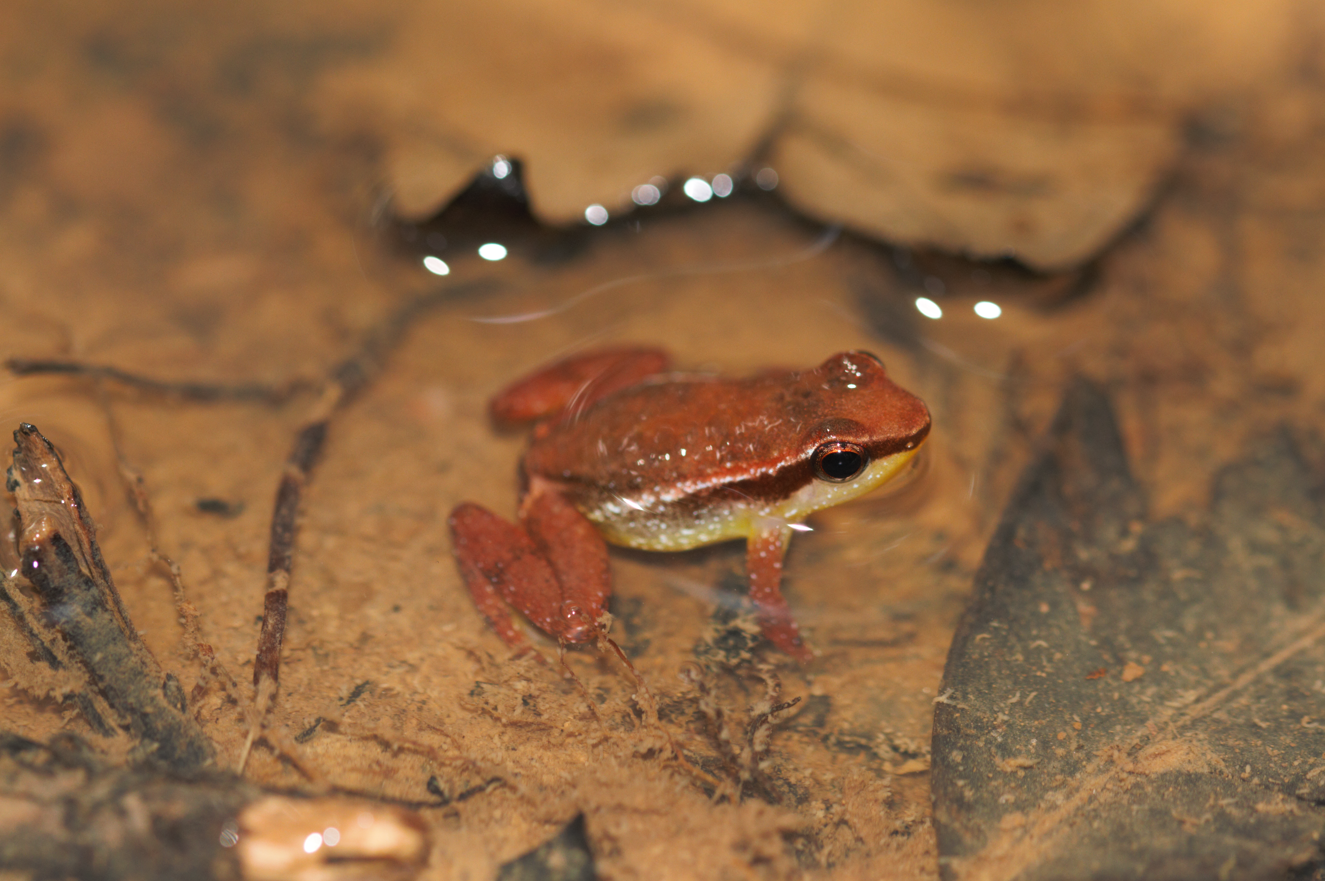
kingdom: Animalia
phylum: Chordata
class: Amphibia
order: Anura
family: Aromobatidae
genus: Anomaloglossus
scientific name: Anomaloglossus baeobatrachus
